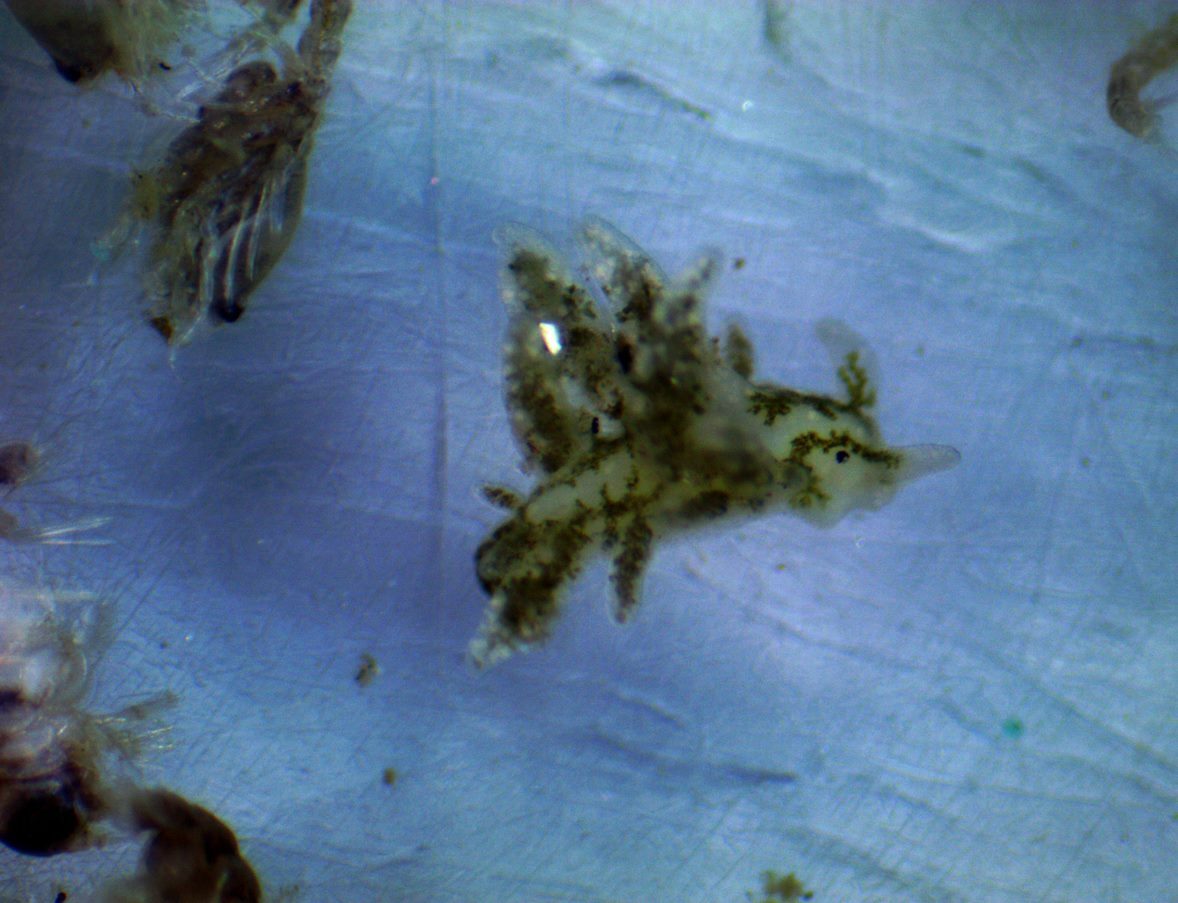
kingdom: Animalia
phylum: Mollusca
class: Gastropoda
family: Limapontiidae
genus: Placida
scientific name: Placida dendritica
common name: Dendritic nudibranch
